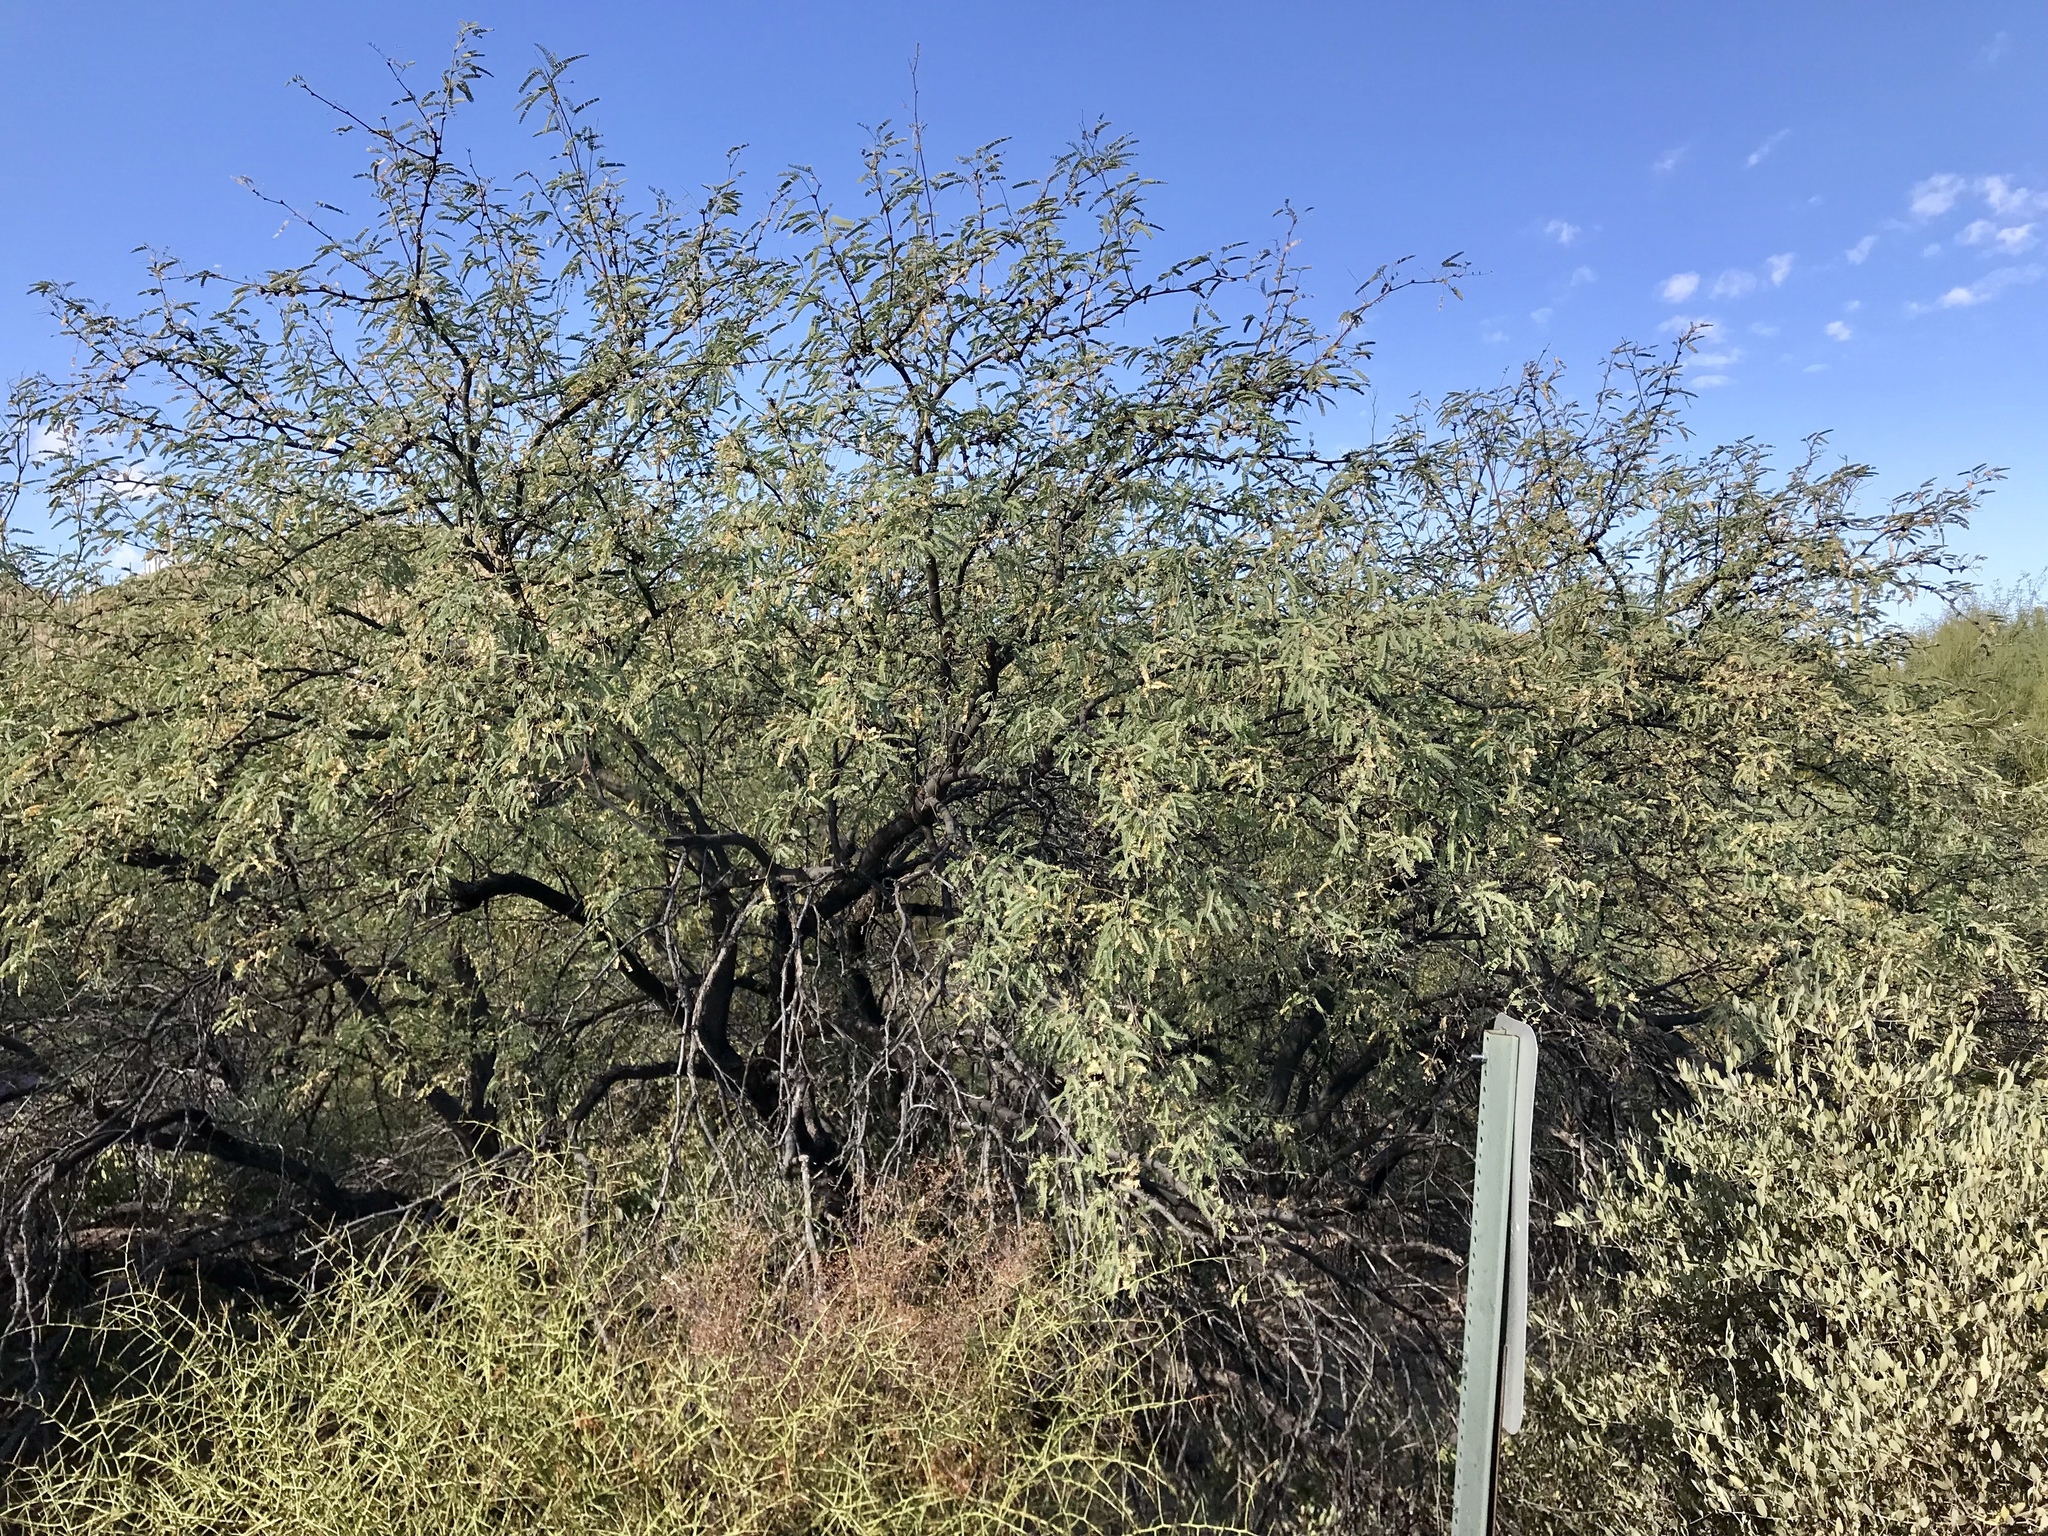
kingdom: Plantae
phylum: Tracheophyta
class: Magnoliopsida
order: Fabales
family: Fabaceae
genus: Prosopis
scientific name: Prosopis velutina
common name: Velvet mesquite
